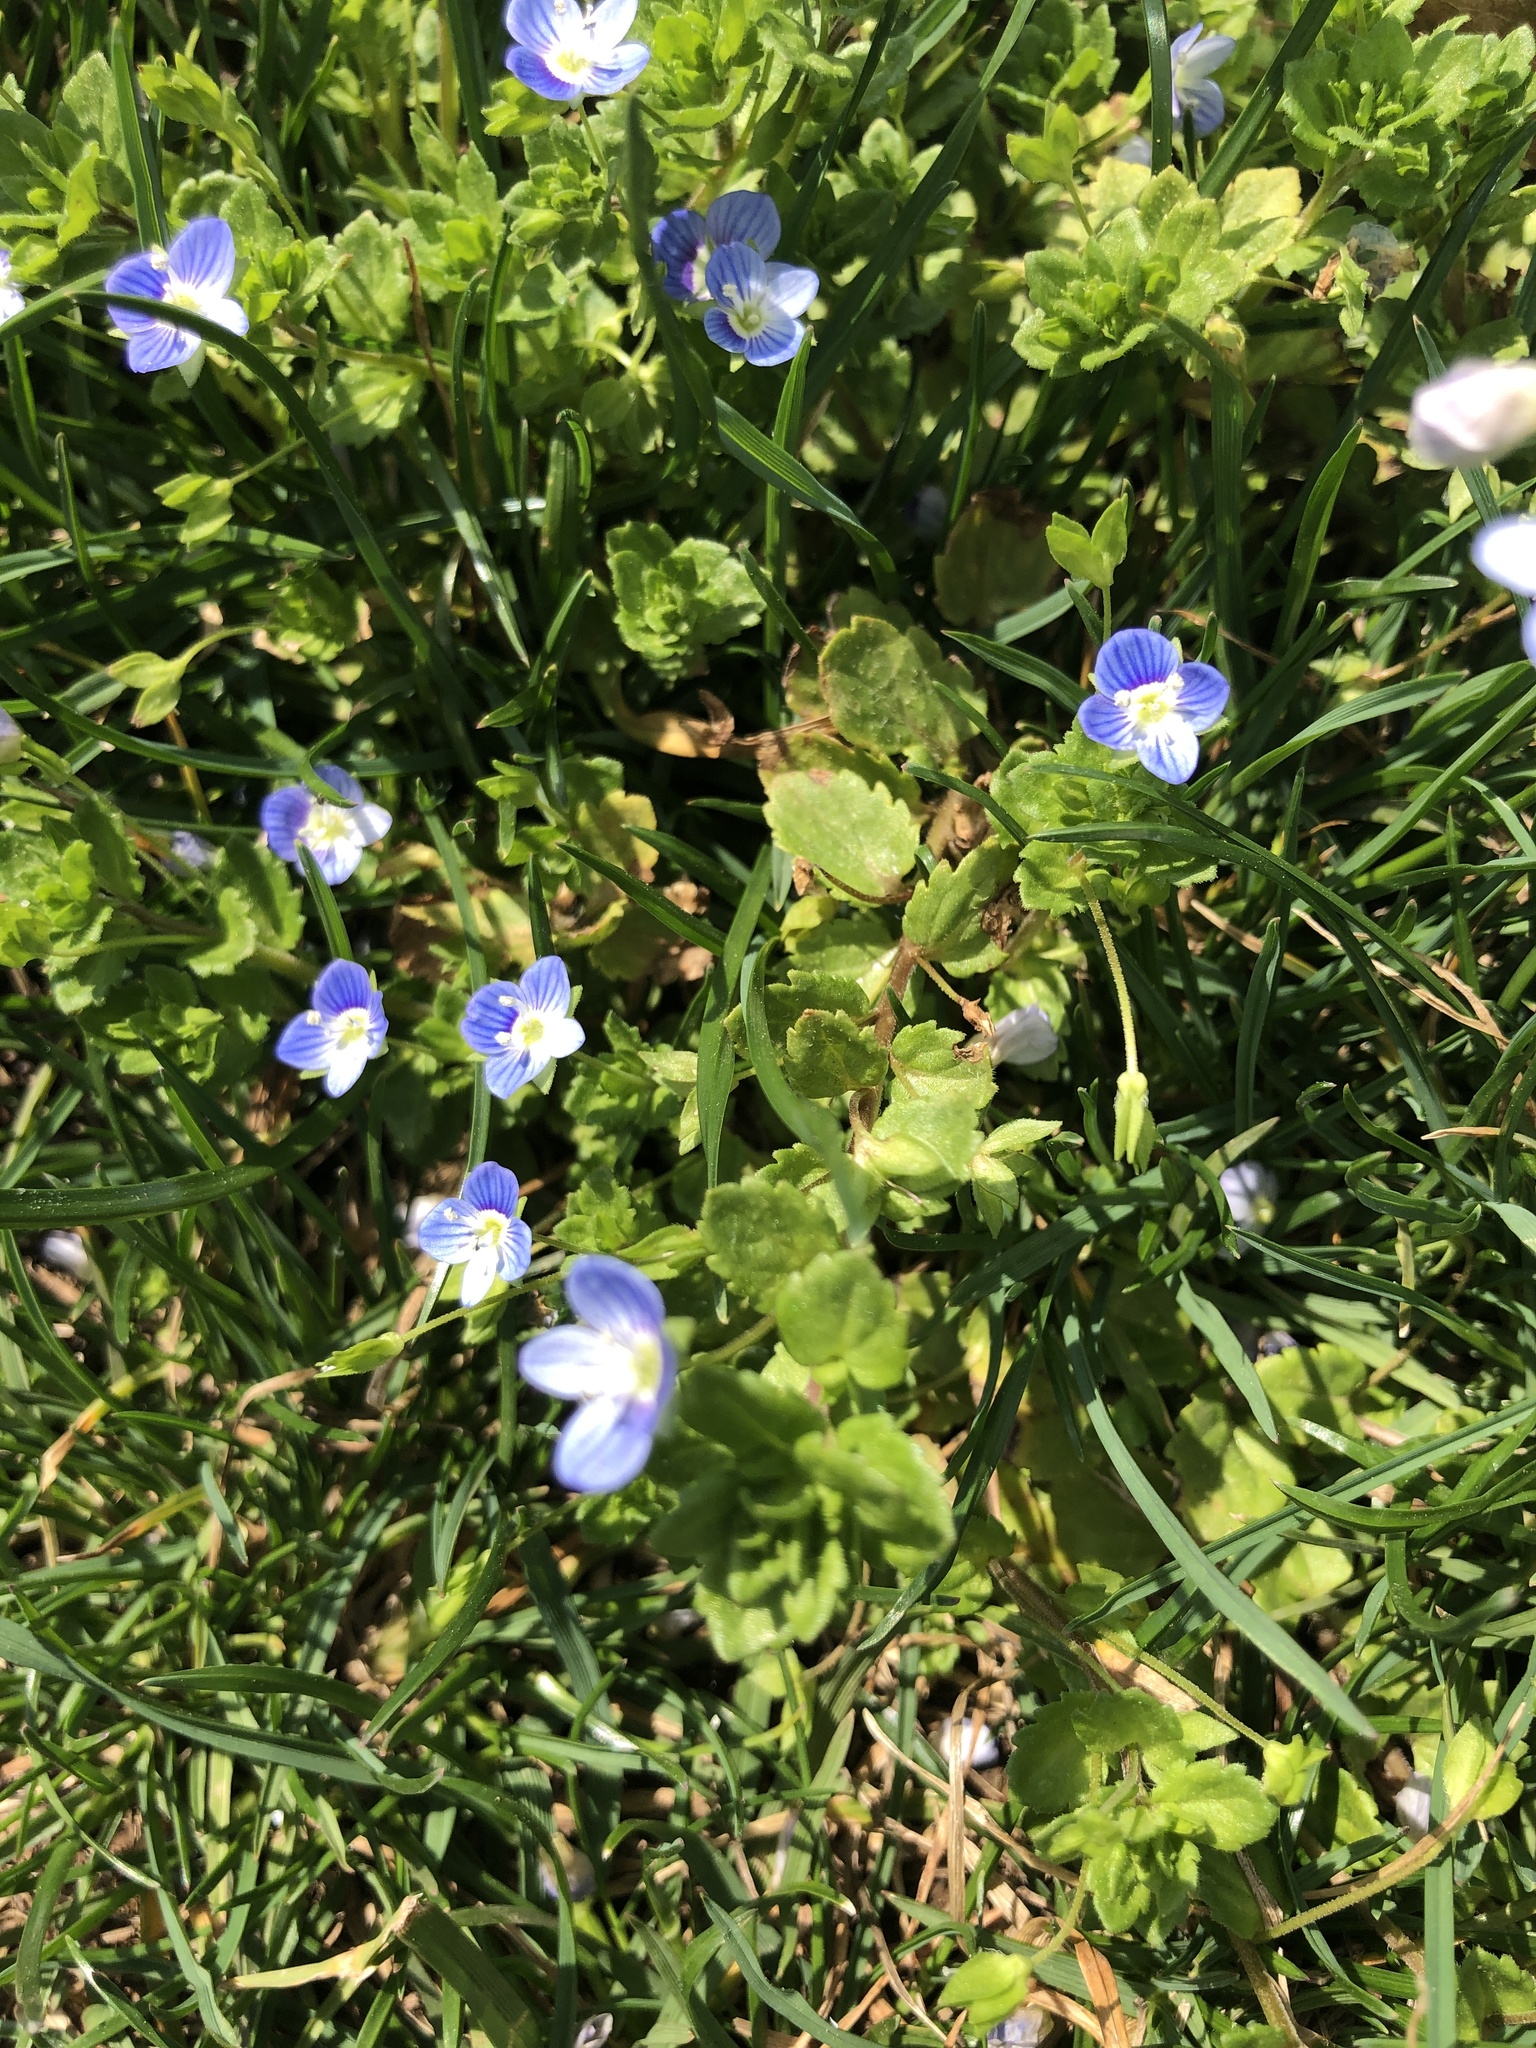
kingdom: Plantae
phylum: Tracheophyta
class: Magnoliopsida
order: Lamiales
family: Plantaginaceae
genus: Veronica
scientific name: Veronica persica
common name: Common field-speedwell
